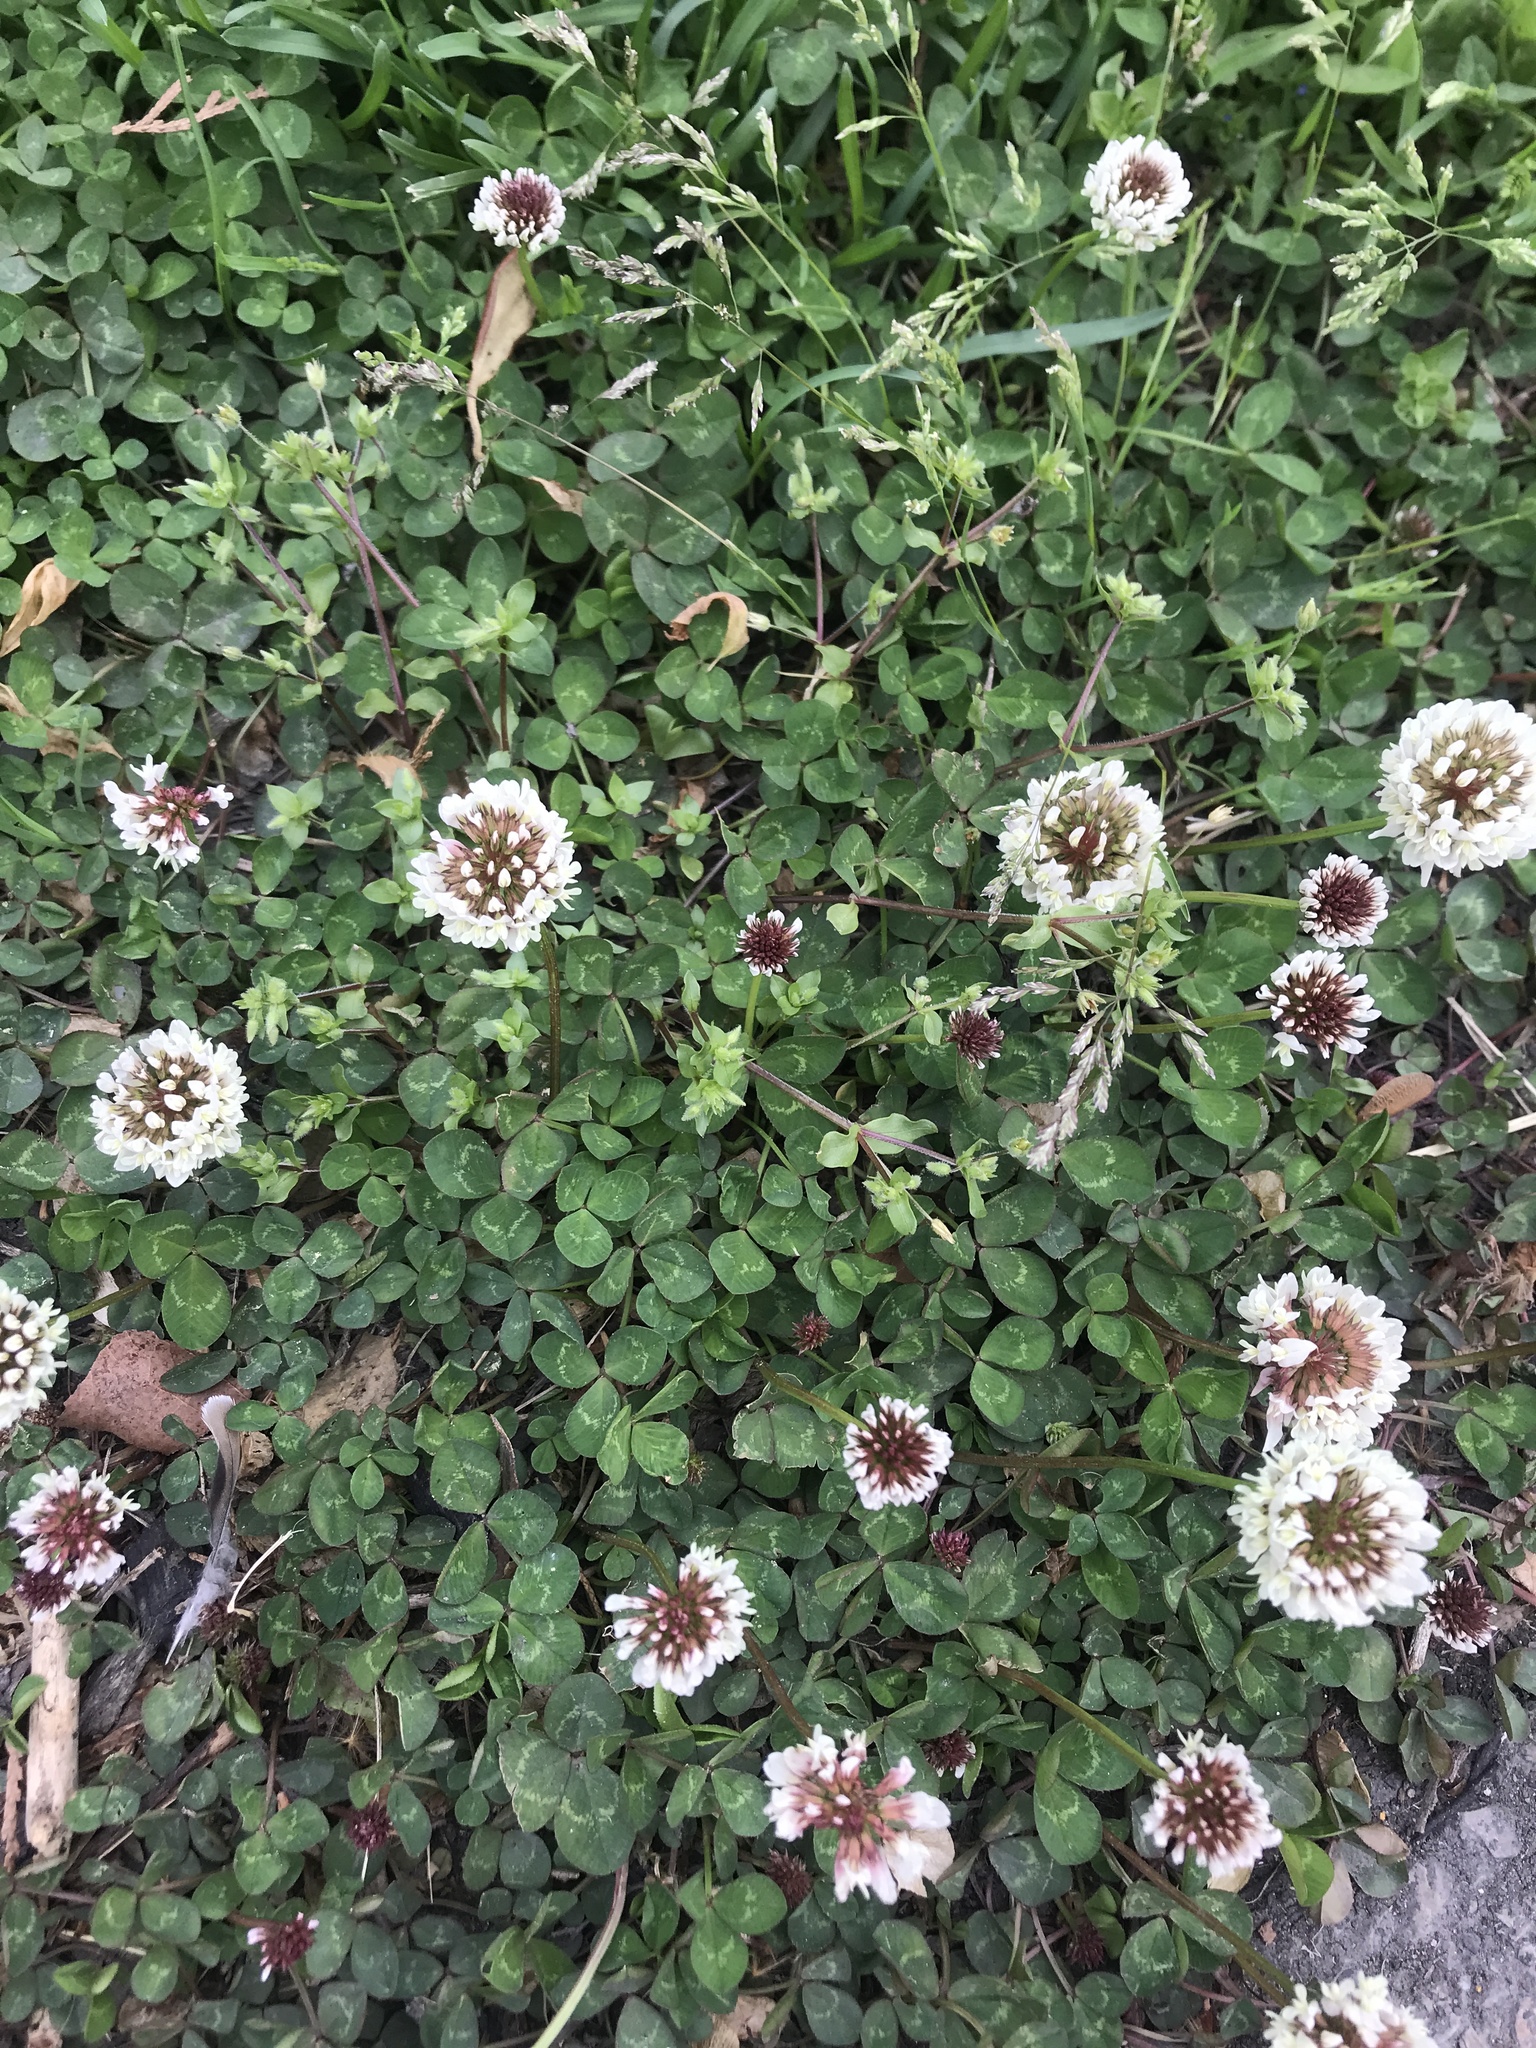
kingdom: Plantae
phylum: Tracheophyta
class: Magnoliopsida
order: Fabales
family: Fabaceae
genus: Trifolium
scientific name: Trifolium repens
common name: White clover
